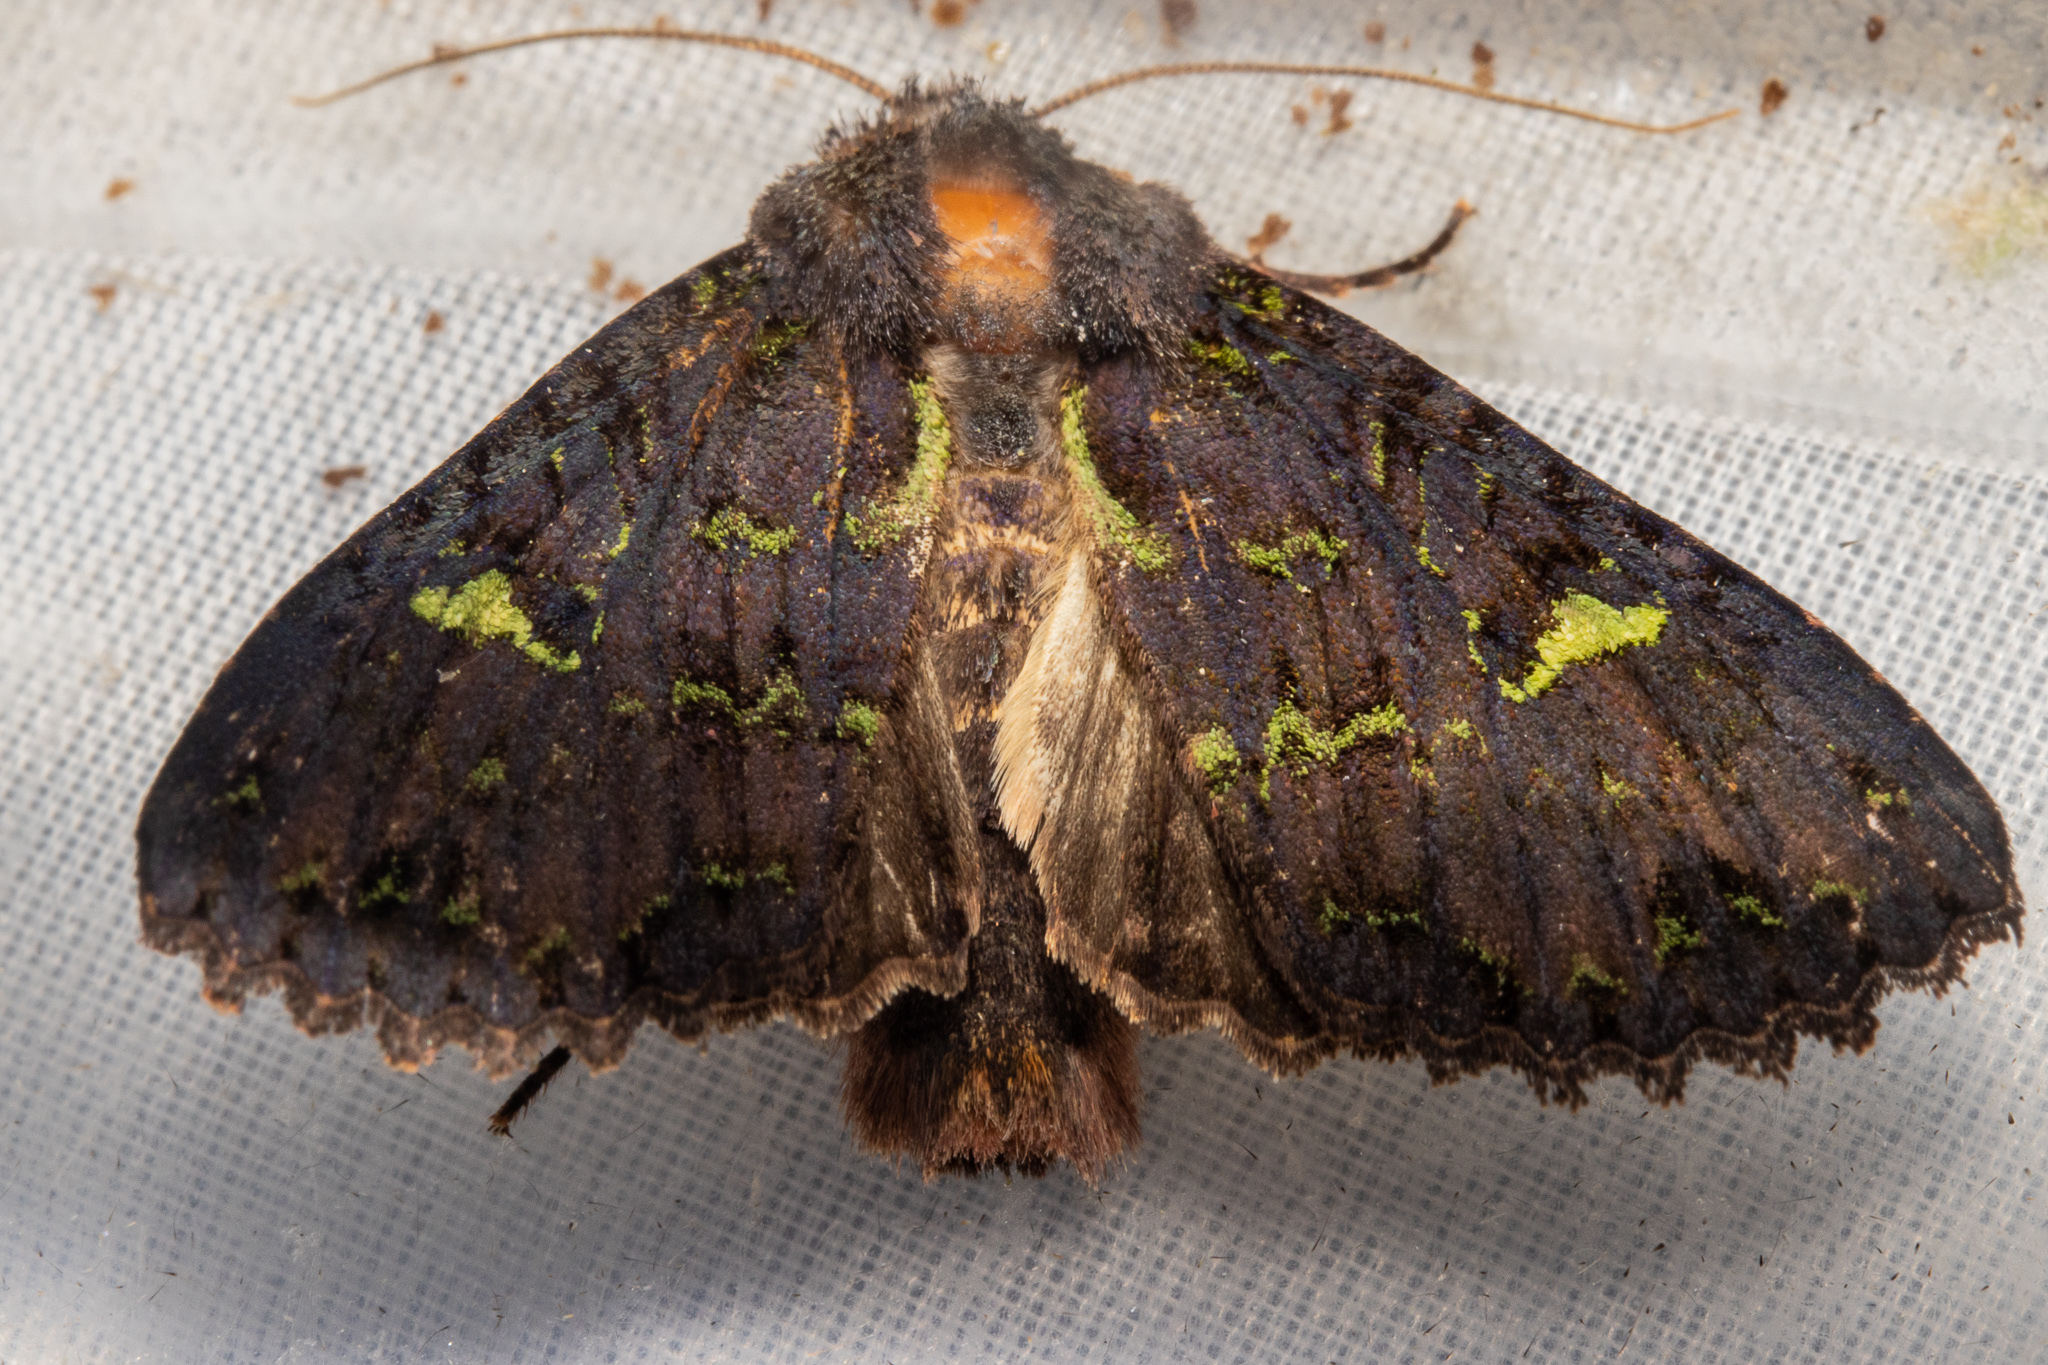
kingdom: Animalia
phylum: Arthropoda
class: Insecta
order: Lepidoptera
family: Noctuidae
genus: Meterana
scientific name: Meterana merope
